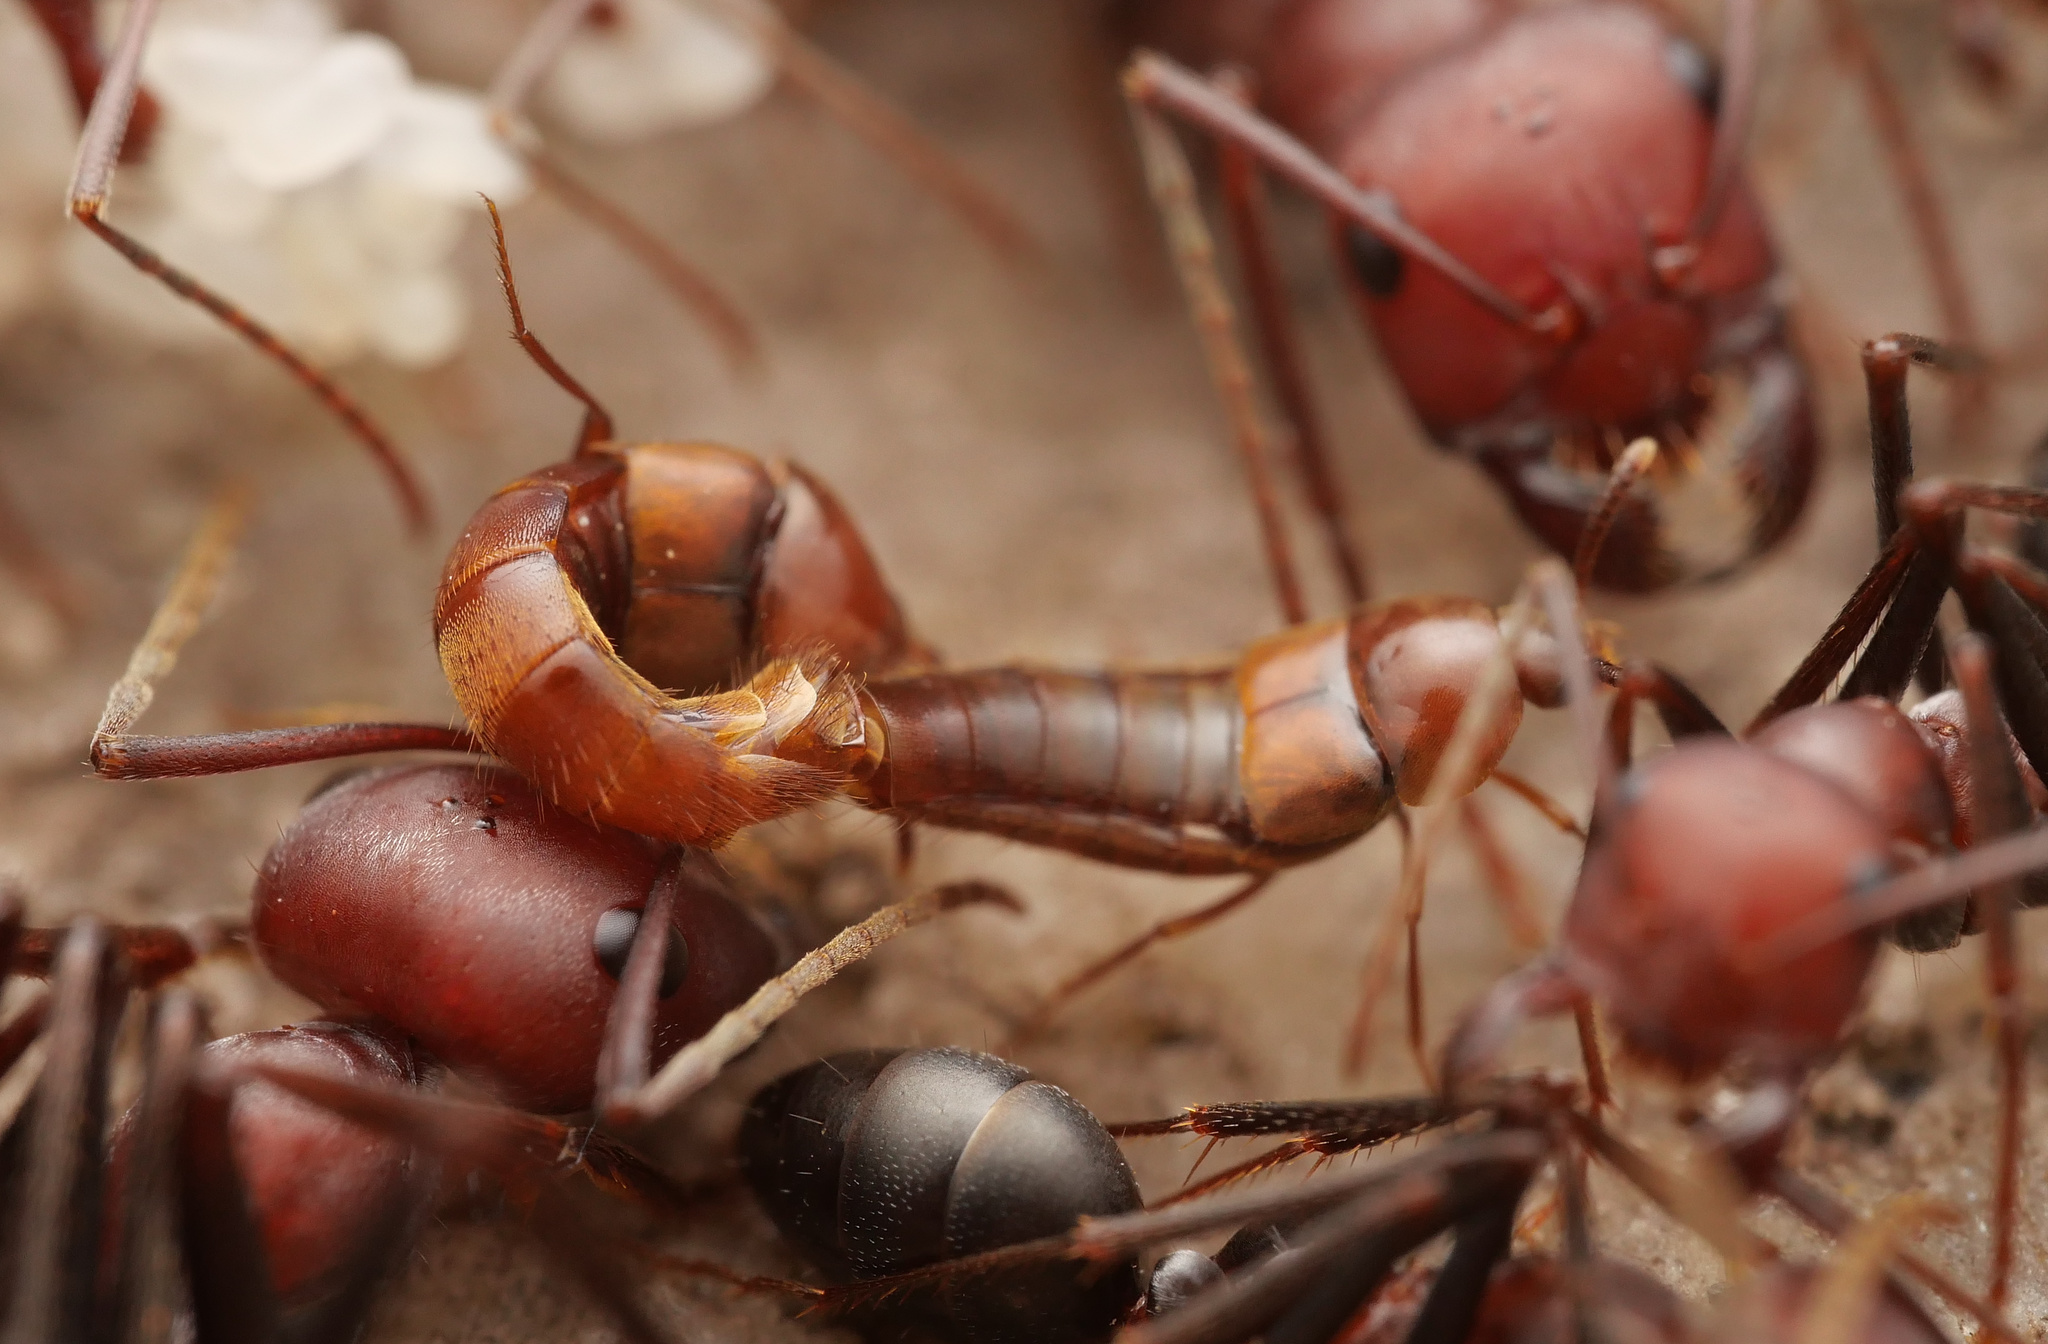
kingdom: Animalia
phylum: Arthropoda
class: Insecta
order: Coleoptera
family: Staphylinidae
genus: Piochardia
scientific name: Piochardia reitteri
